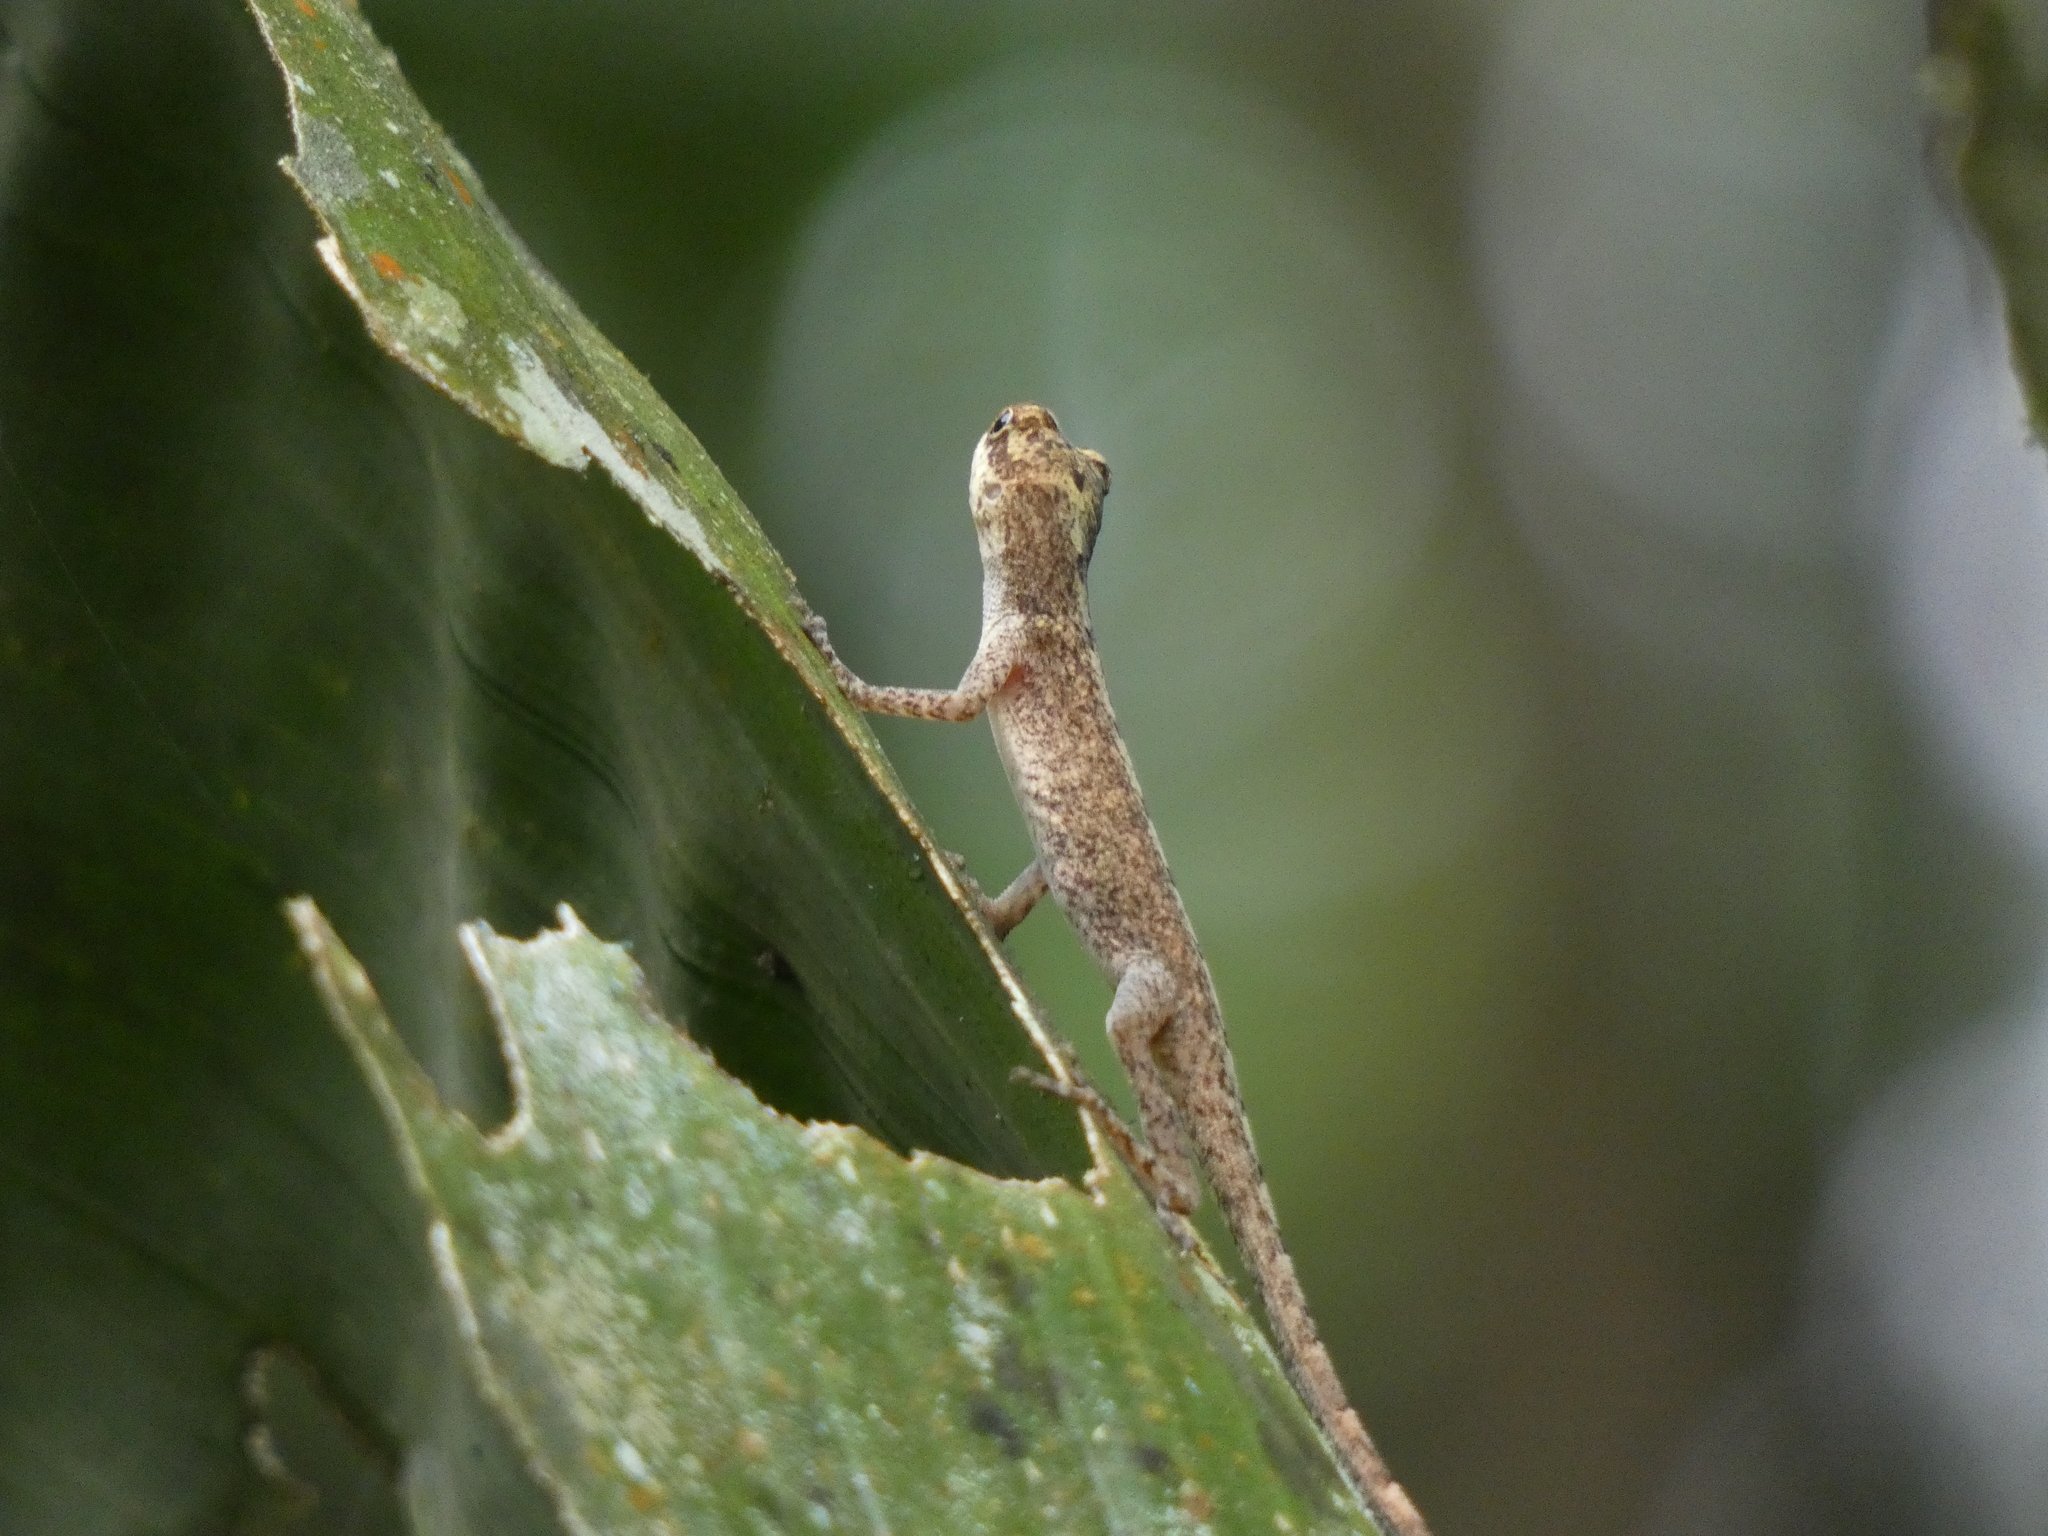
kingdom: Animalia
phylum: Chordata
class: Squamata
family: Dactyloidae
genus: Anolis
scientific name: Anolis fuscoauratus
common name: Brown-eared anole
